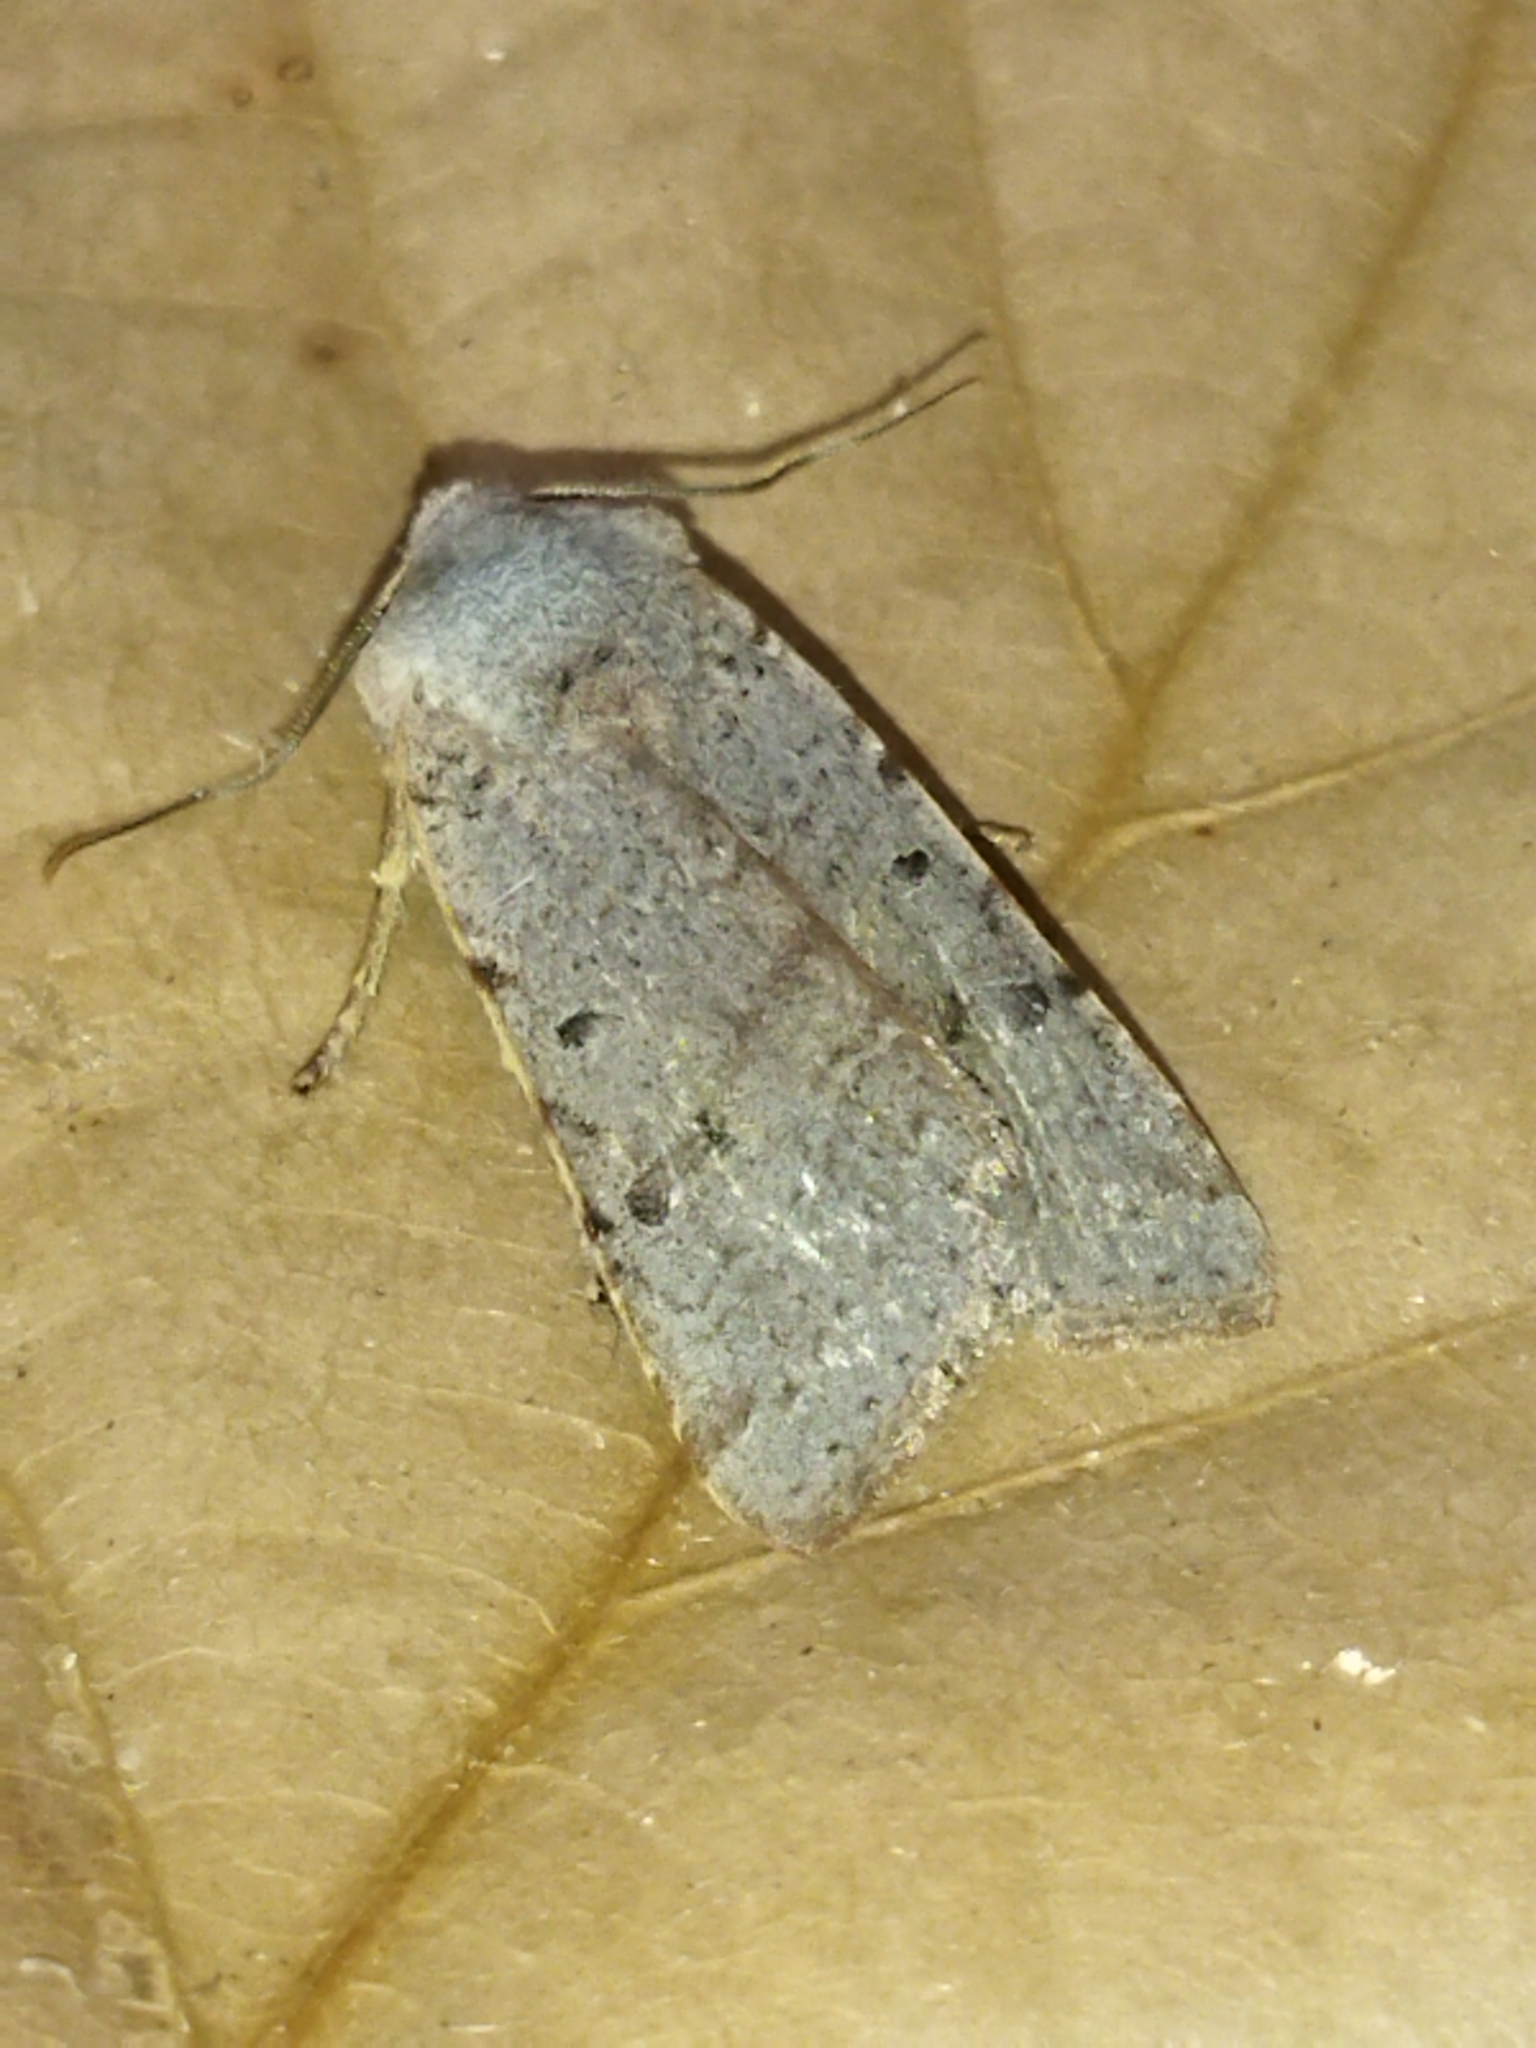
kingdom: Animalia
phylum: Arthropoda
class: Insecta
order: Lepidoptera
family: Noctuidae
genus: Agrochola
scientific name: Agrochola lychnidis
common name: Beaded chestnut
